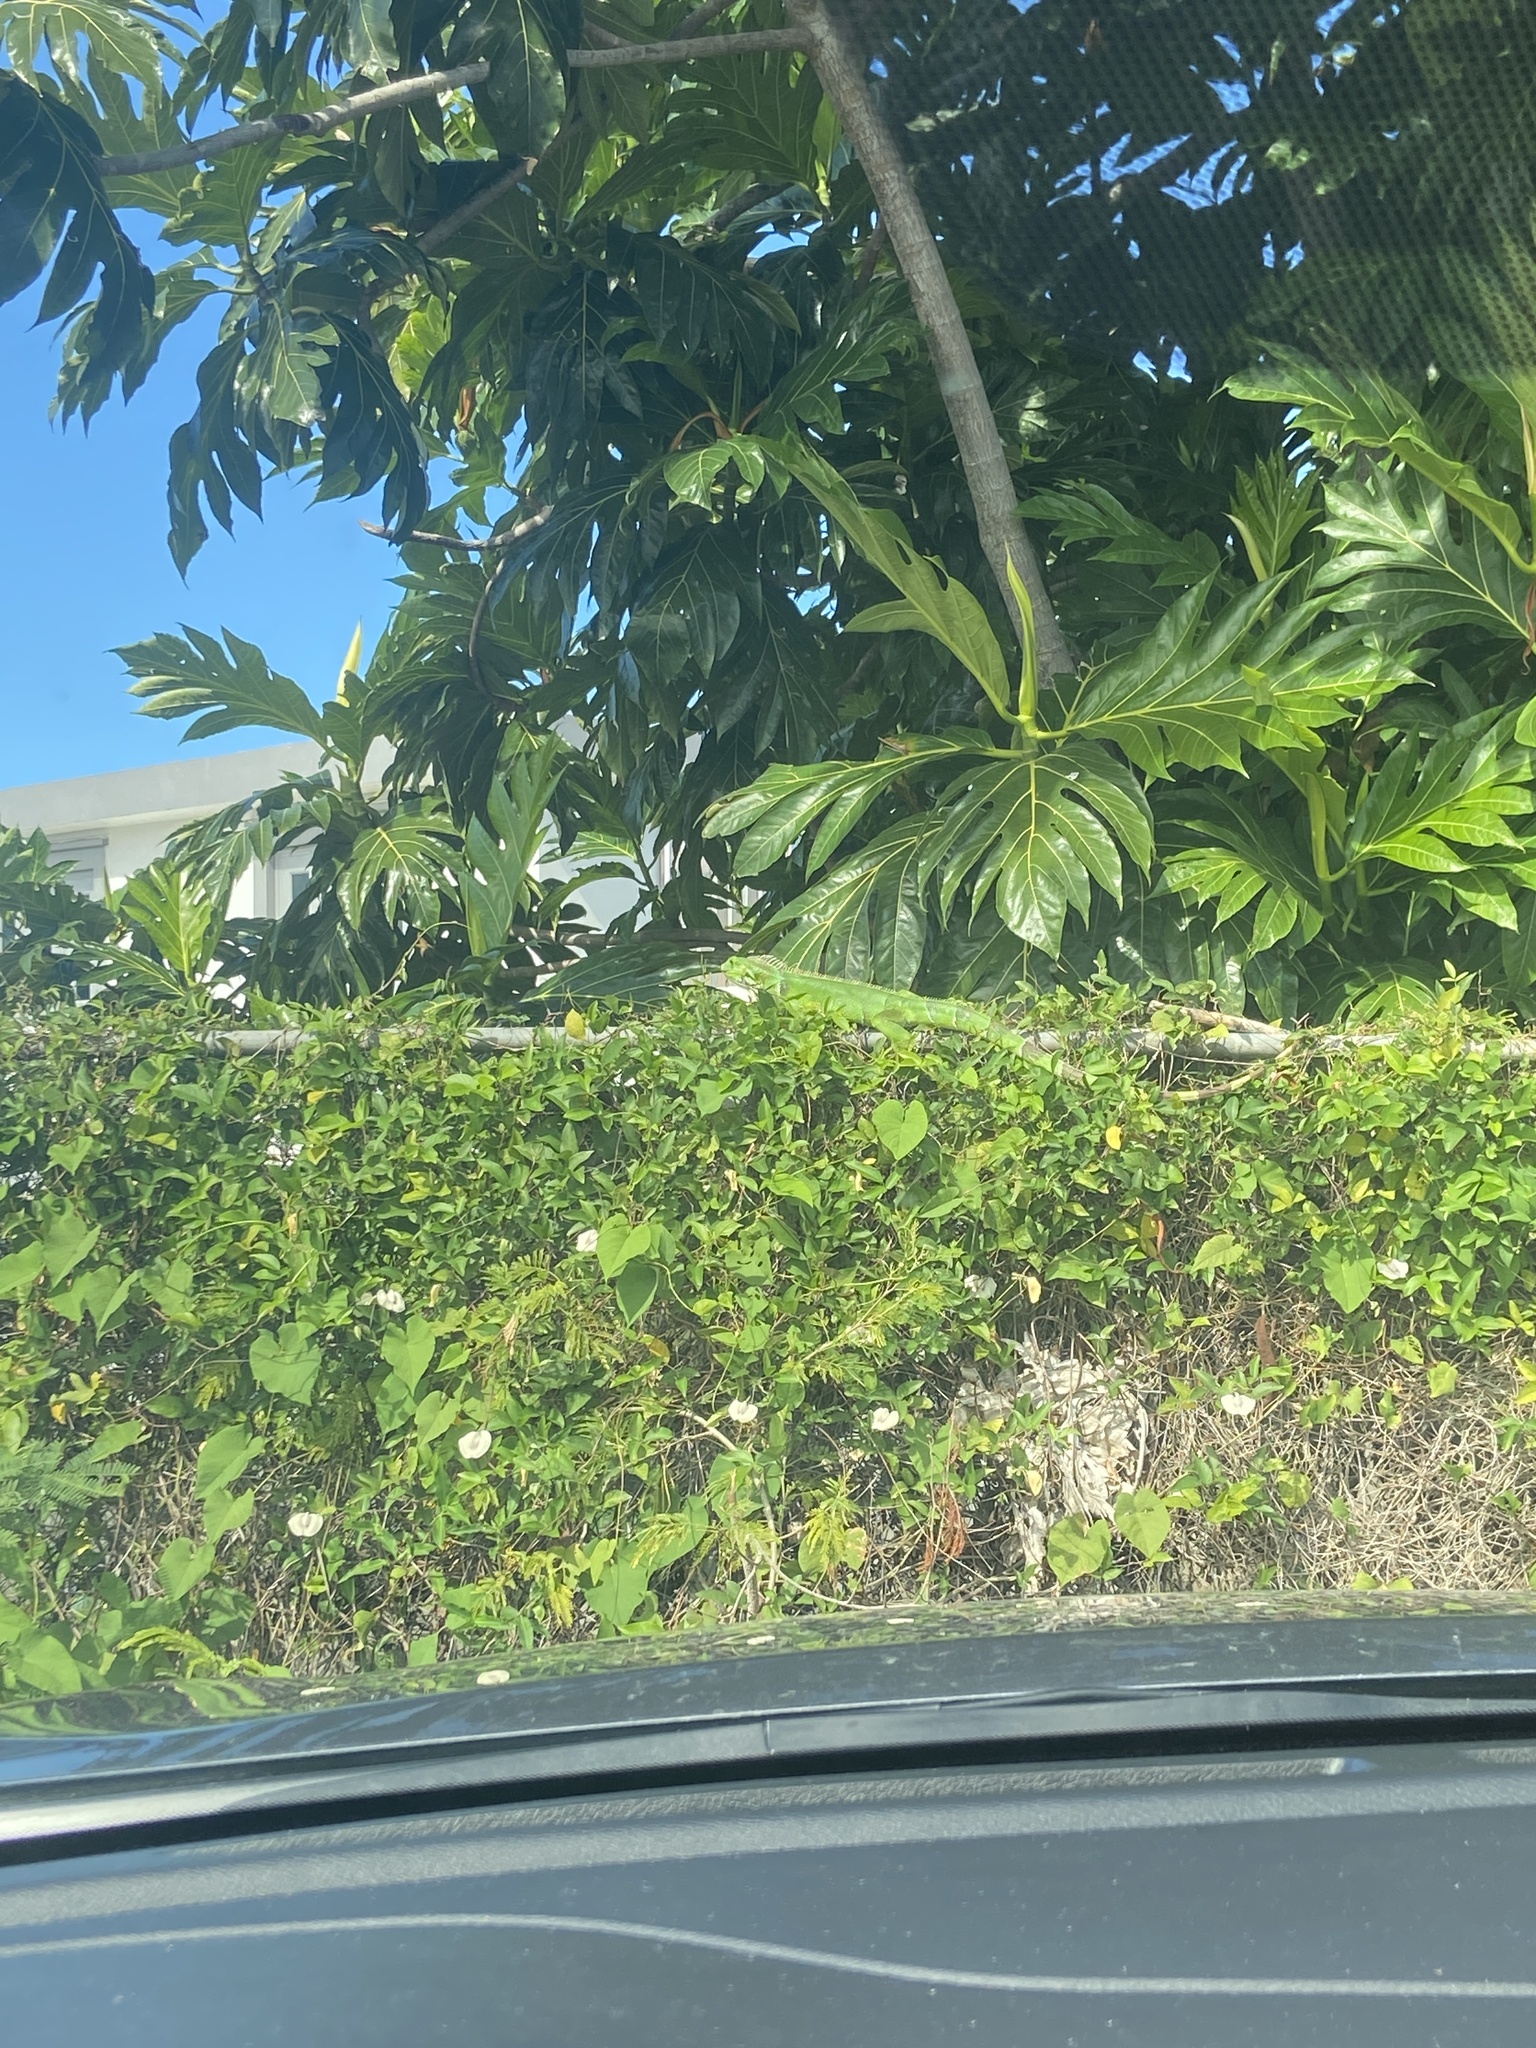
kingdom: Animalia
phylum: Chordata
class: Squamata
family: Iguanidae
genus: Iguana
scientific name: Iguana iguana
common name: Green iguana
